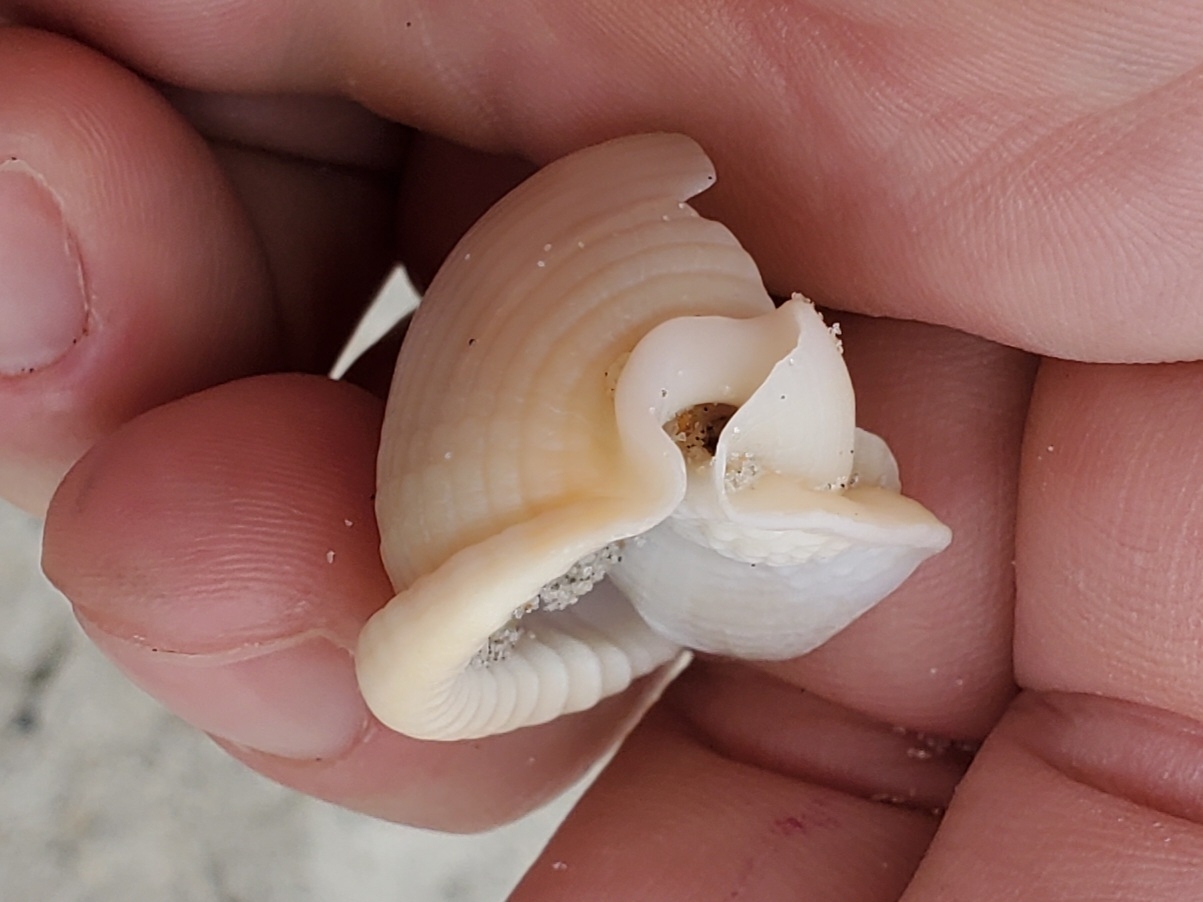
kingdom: Animalia
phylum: Mollusca
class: Gastropoda
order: Littorinimorpha
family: Cassidae
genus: Semicassis
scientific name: Semicassis granulata
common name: Scotch bonnet
